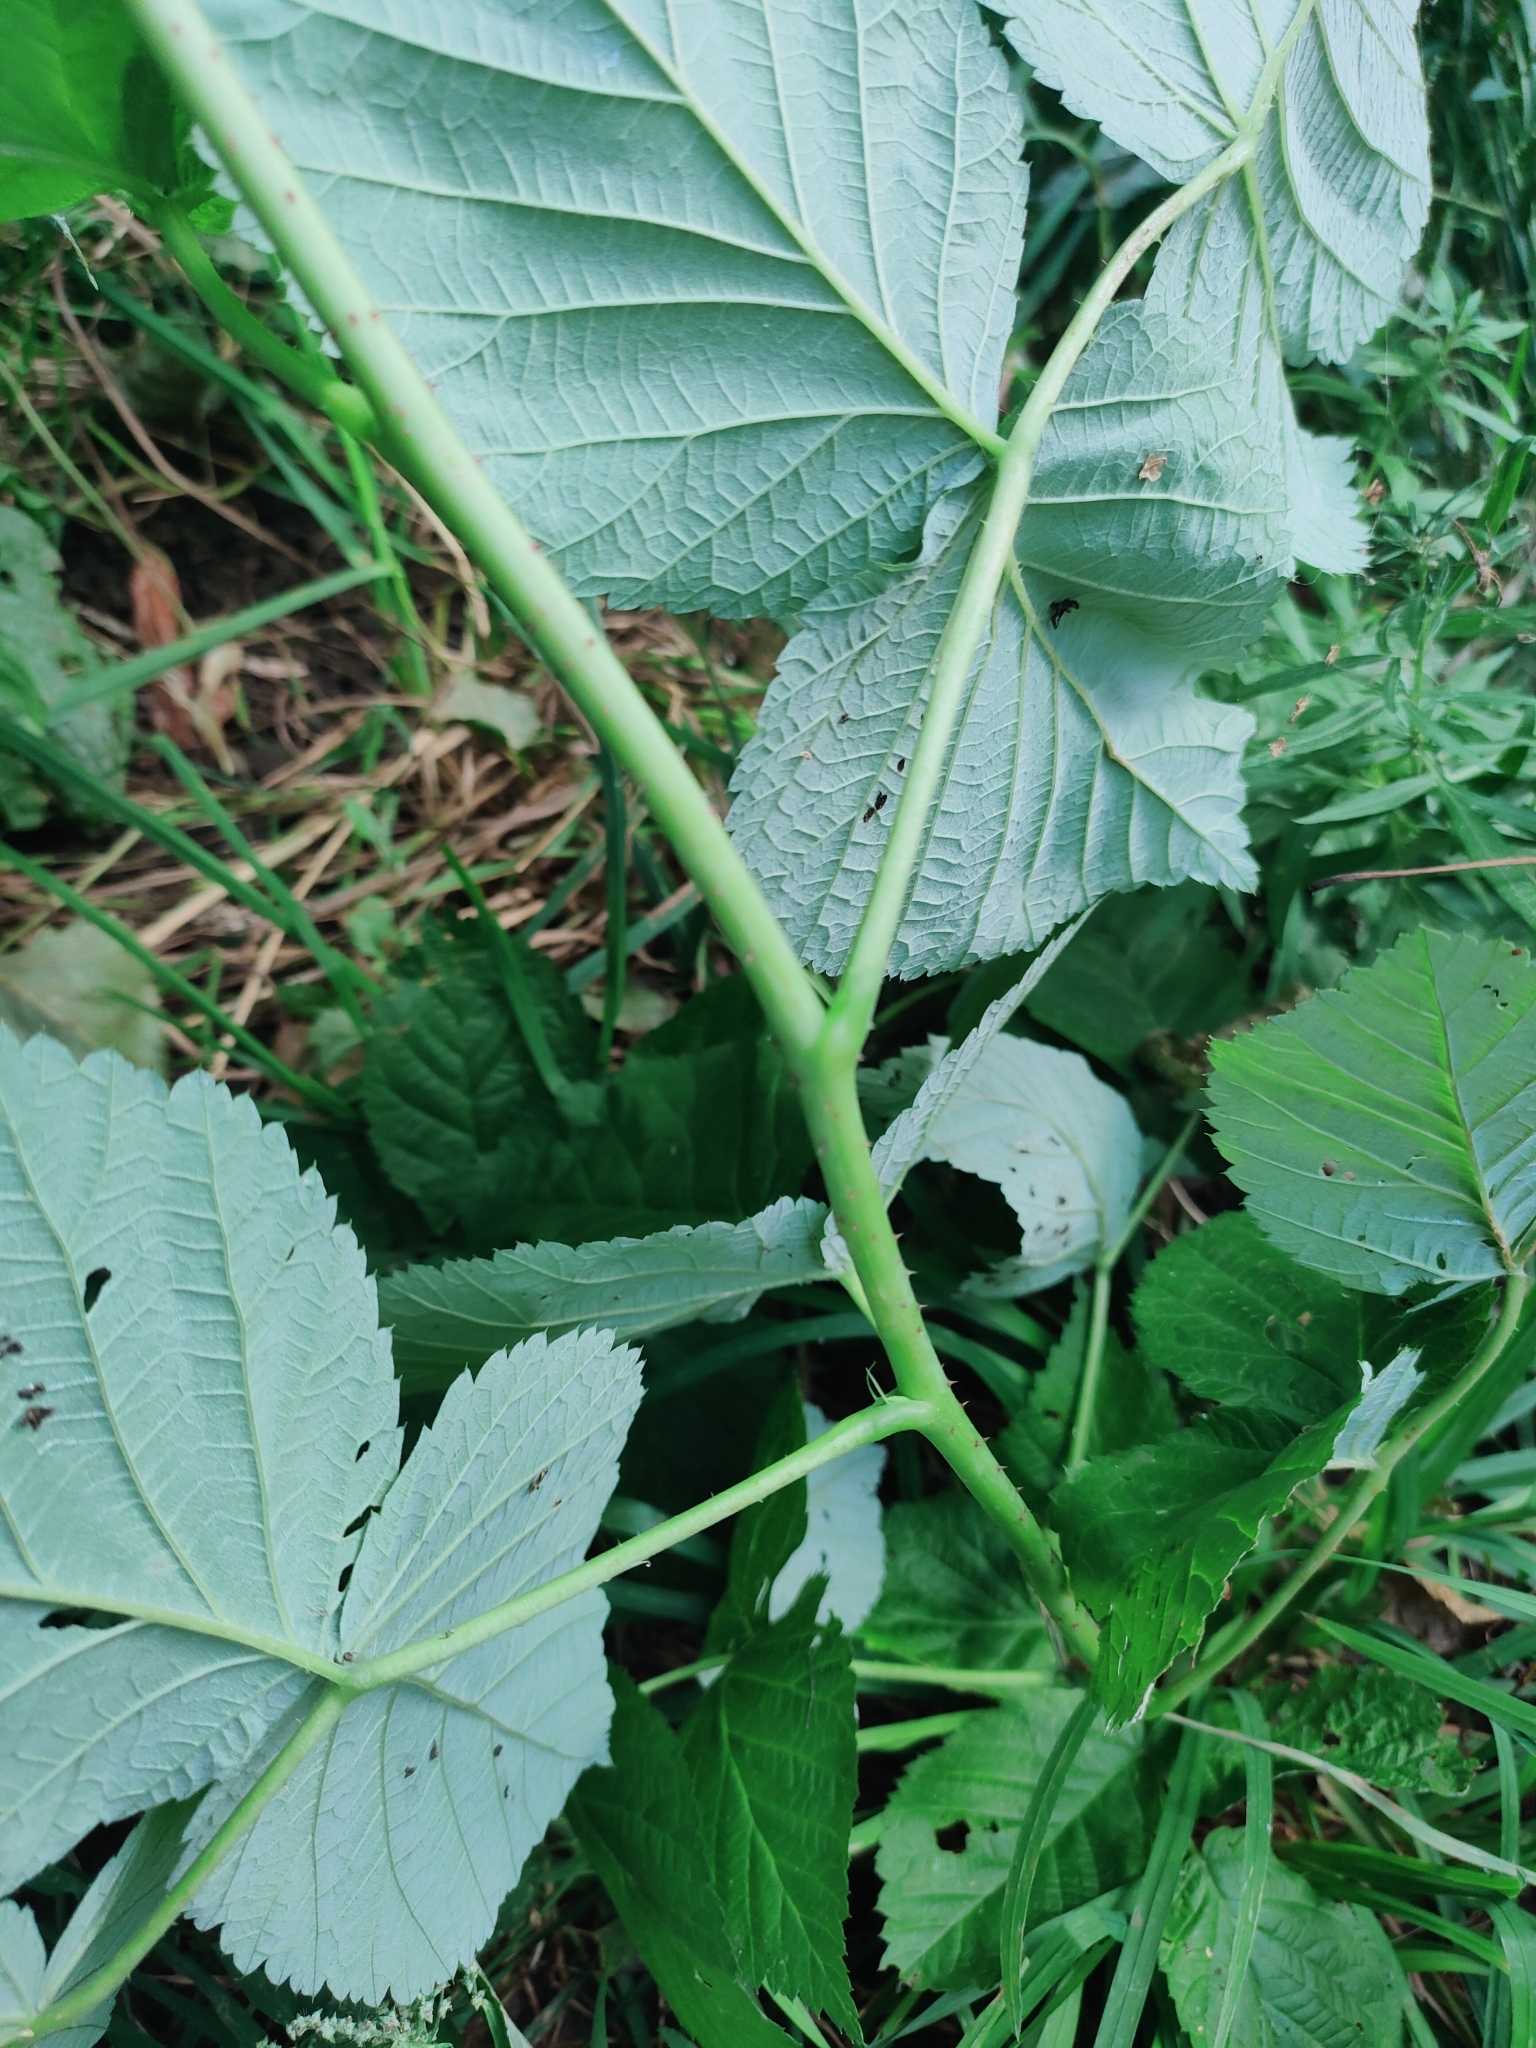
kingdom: Plantae
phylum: Tracheophyta
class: Magnoliopsida
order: Rosales
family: Rosaceae
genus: Rubus
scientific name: Rubus idaeus
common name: Raspberry
